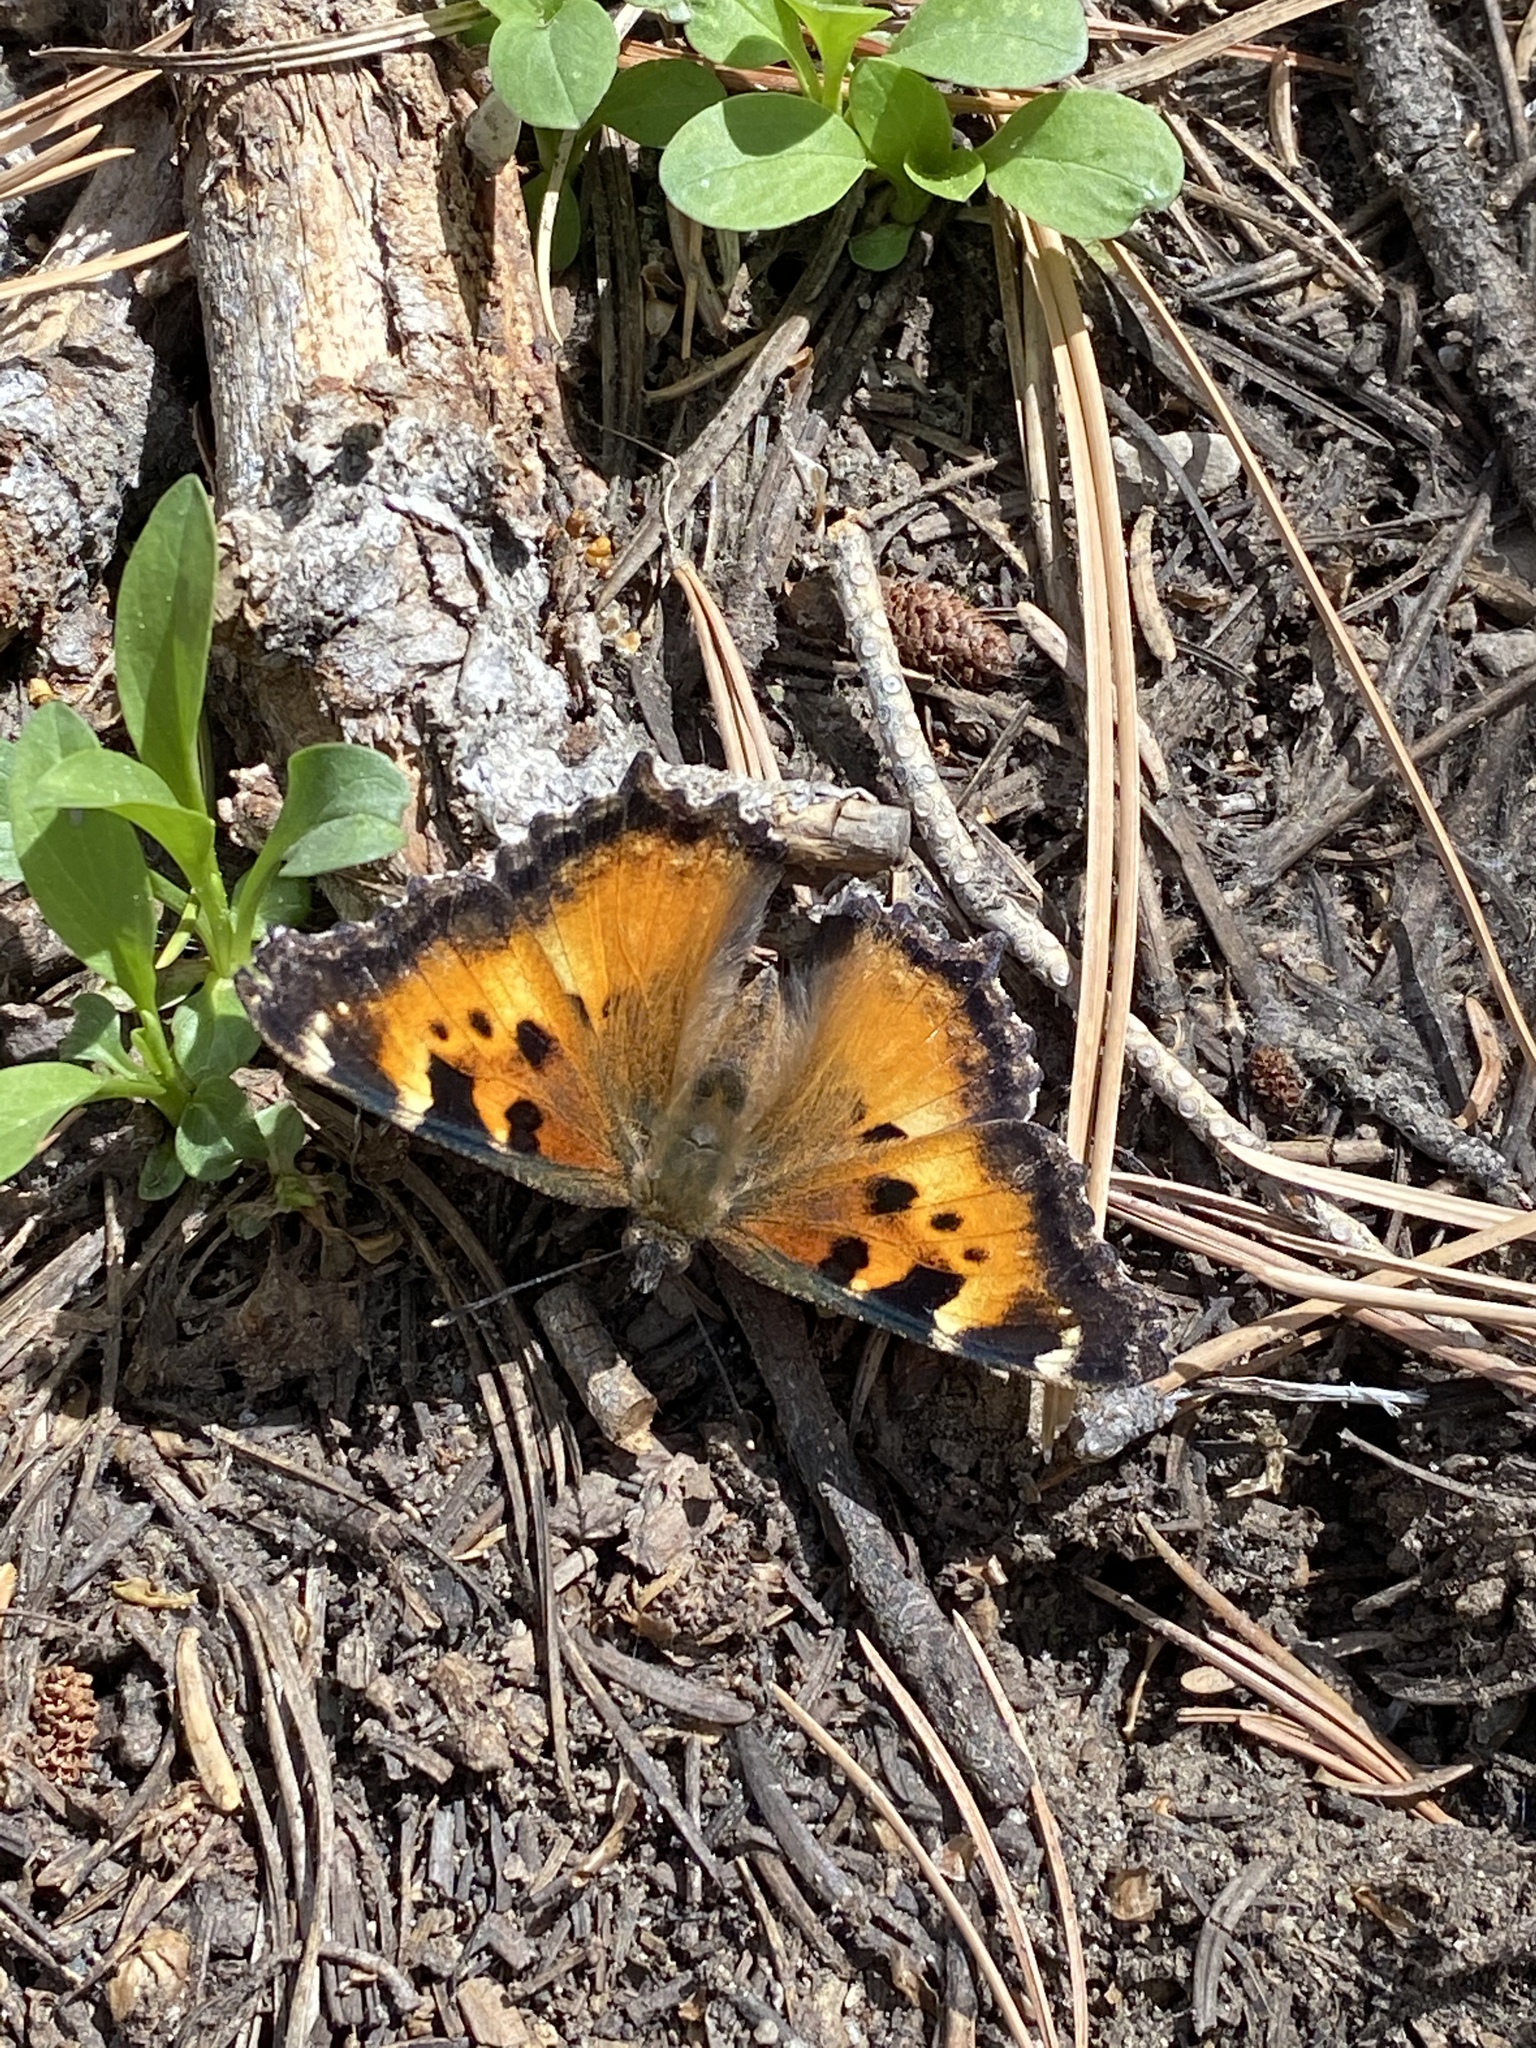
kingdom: Animalia
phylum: Arthropoda
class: Insecta
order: Lepidoptera
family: Nymphalidae
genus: Nymphalis
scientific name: Nymphalis californica
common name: California tortoiseshell
